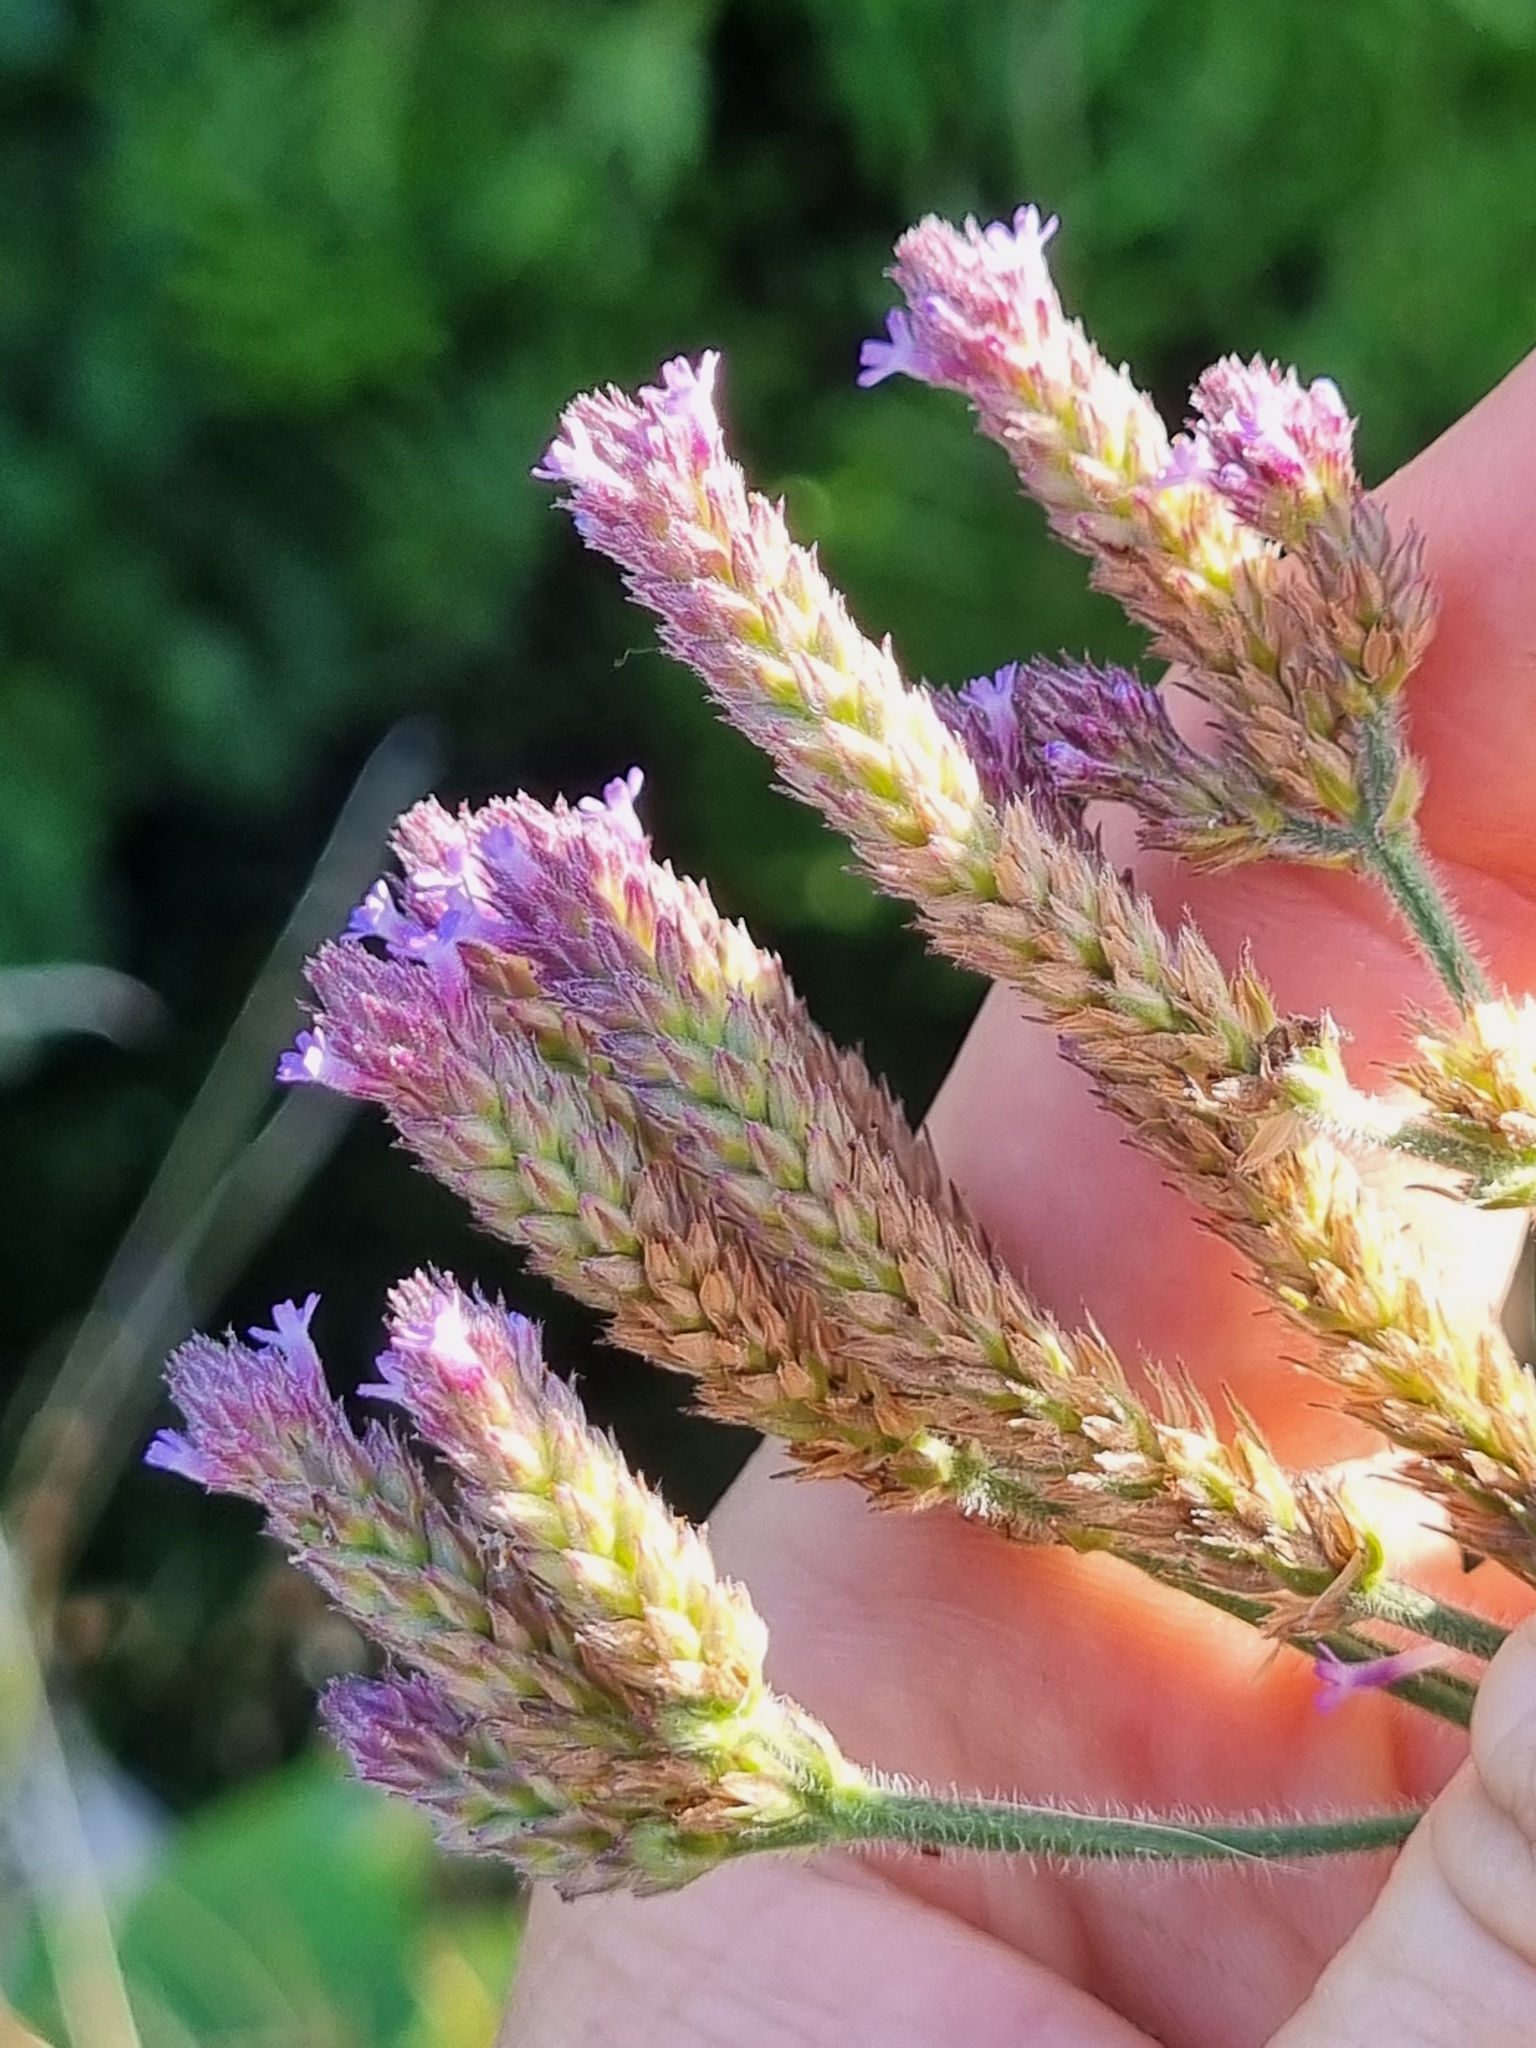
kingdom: Plantae
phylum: Tracheophyta
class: Magnoliopsida
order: Lamiales
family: Verbenaceae
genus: Verbena
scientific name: Verbena incompta
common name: Purpletop vervain
